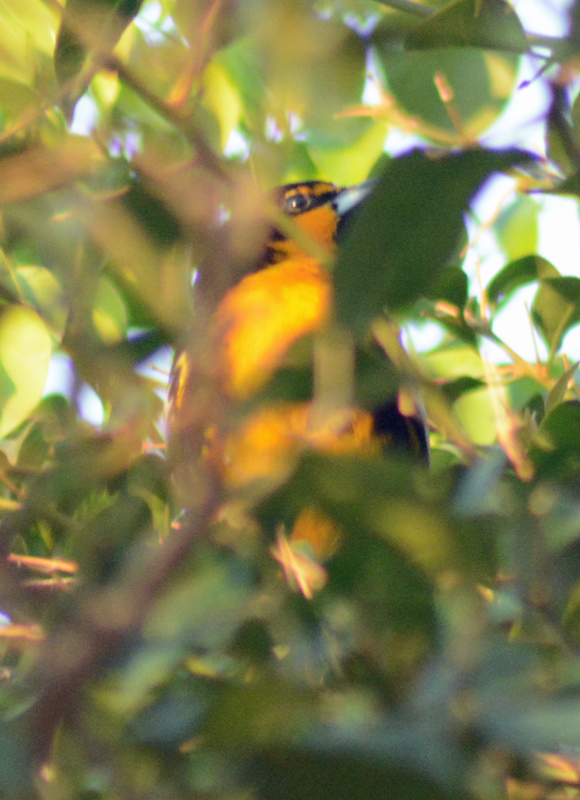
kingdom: Animalia
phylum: Chordata
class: Aves
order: Passeriformes
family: Icteridae
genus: Icterus
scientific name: Icterus abeillei
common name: Black-backed oriole
